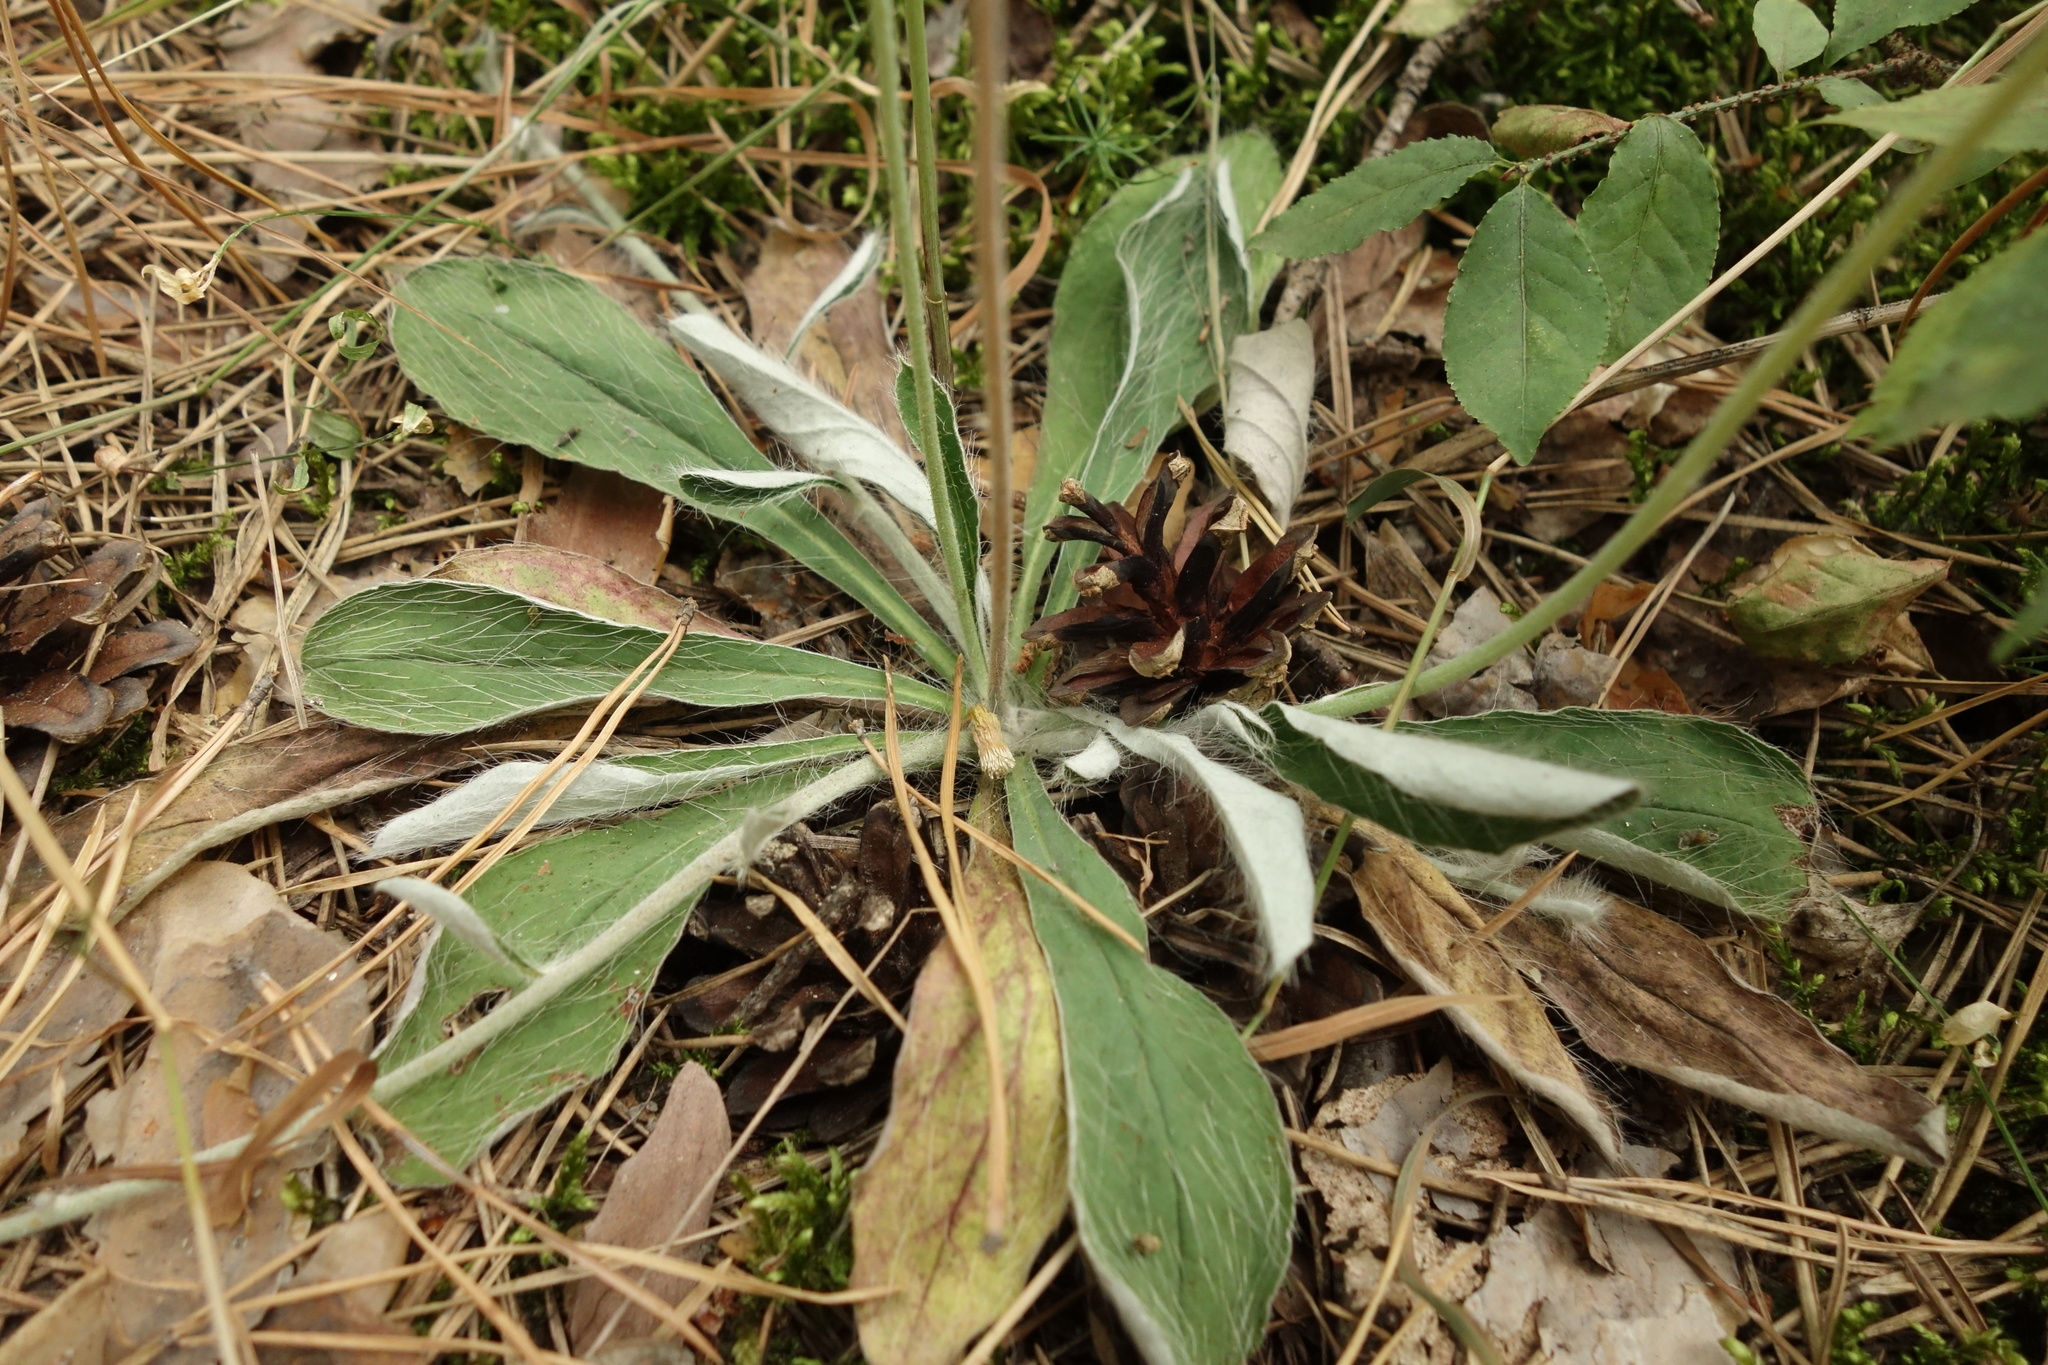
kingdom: Plantae
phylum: Tracheophyta
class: Magnoliopsida
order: Asterales
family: Asteraceae
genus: Pilosella
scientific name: Pilosella officinarum
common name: Mouse-ear hawkweed
